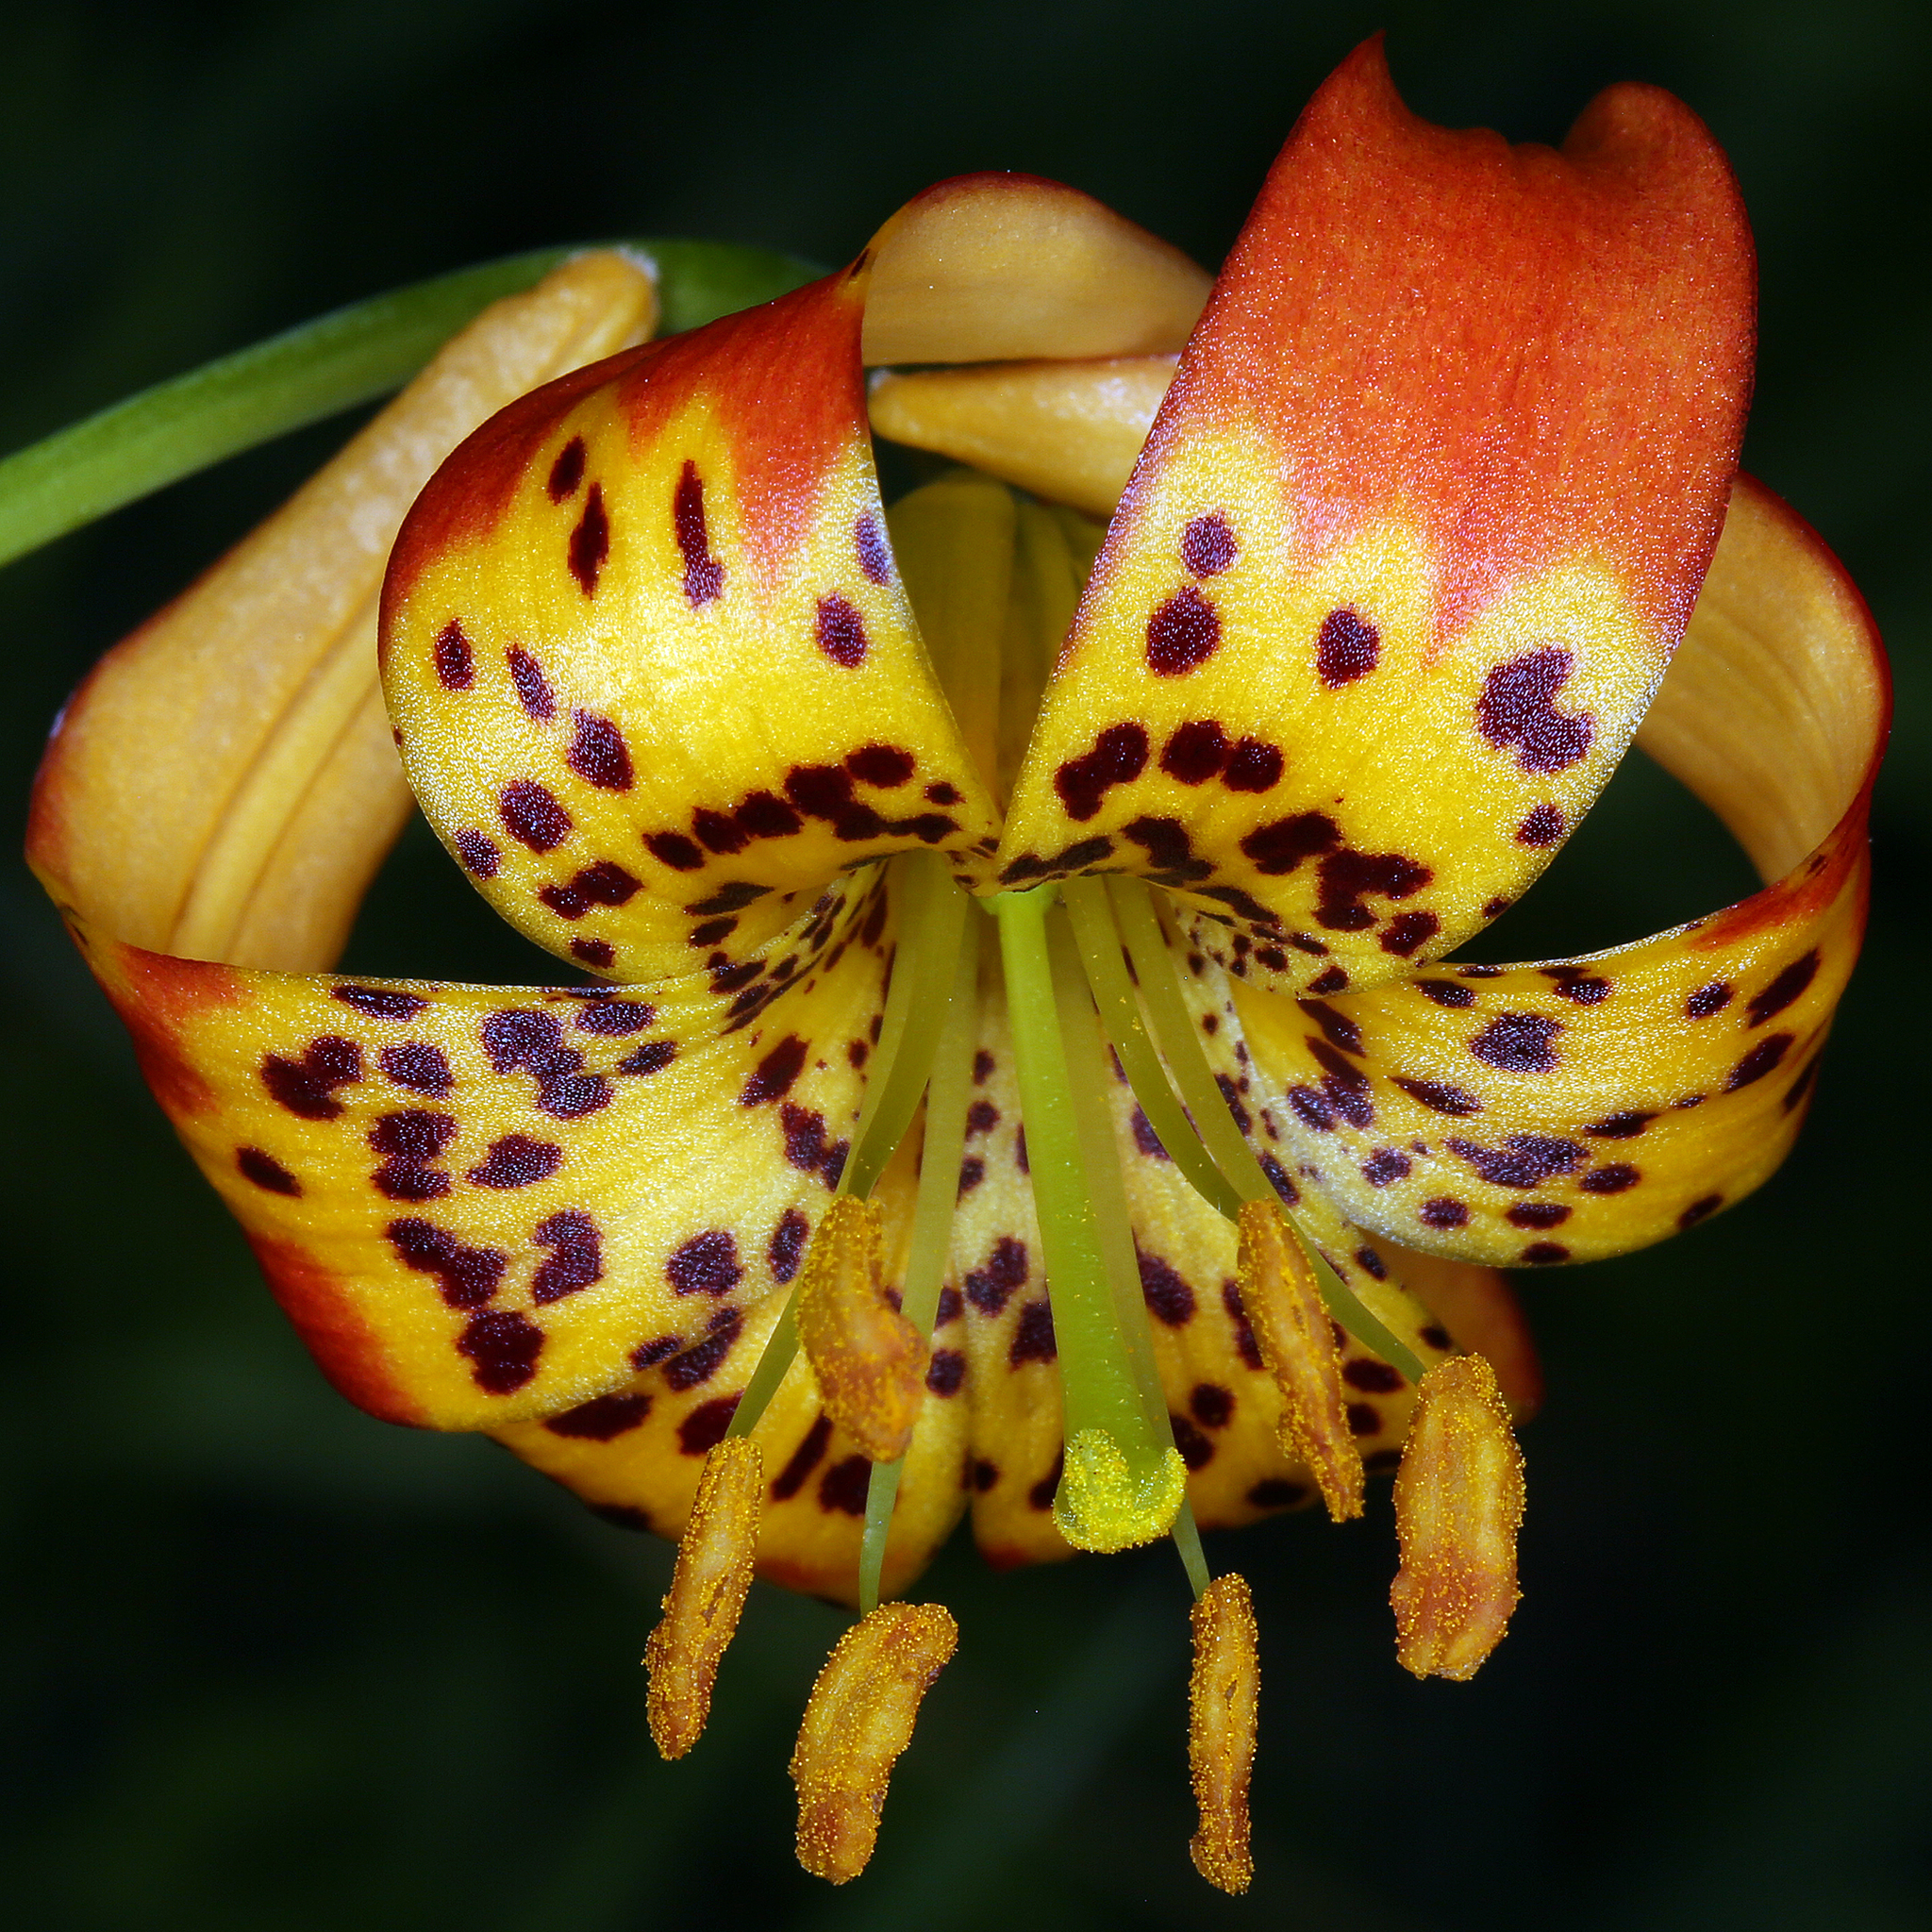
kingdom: Plantae
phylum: Tracheophyta
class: Liliopsida
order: Liliales
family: Liliaceae
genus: Lilium
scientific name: Lilium pardalinum
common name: Panther lily
